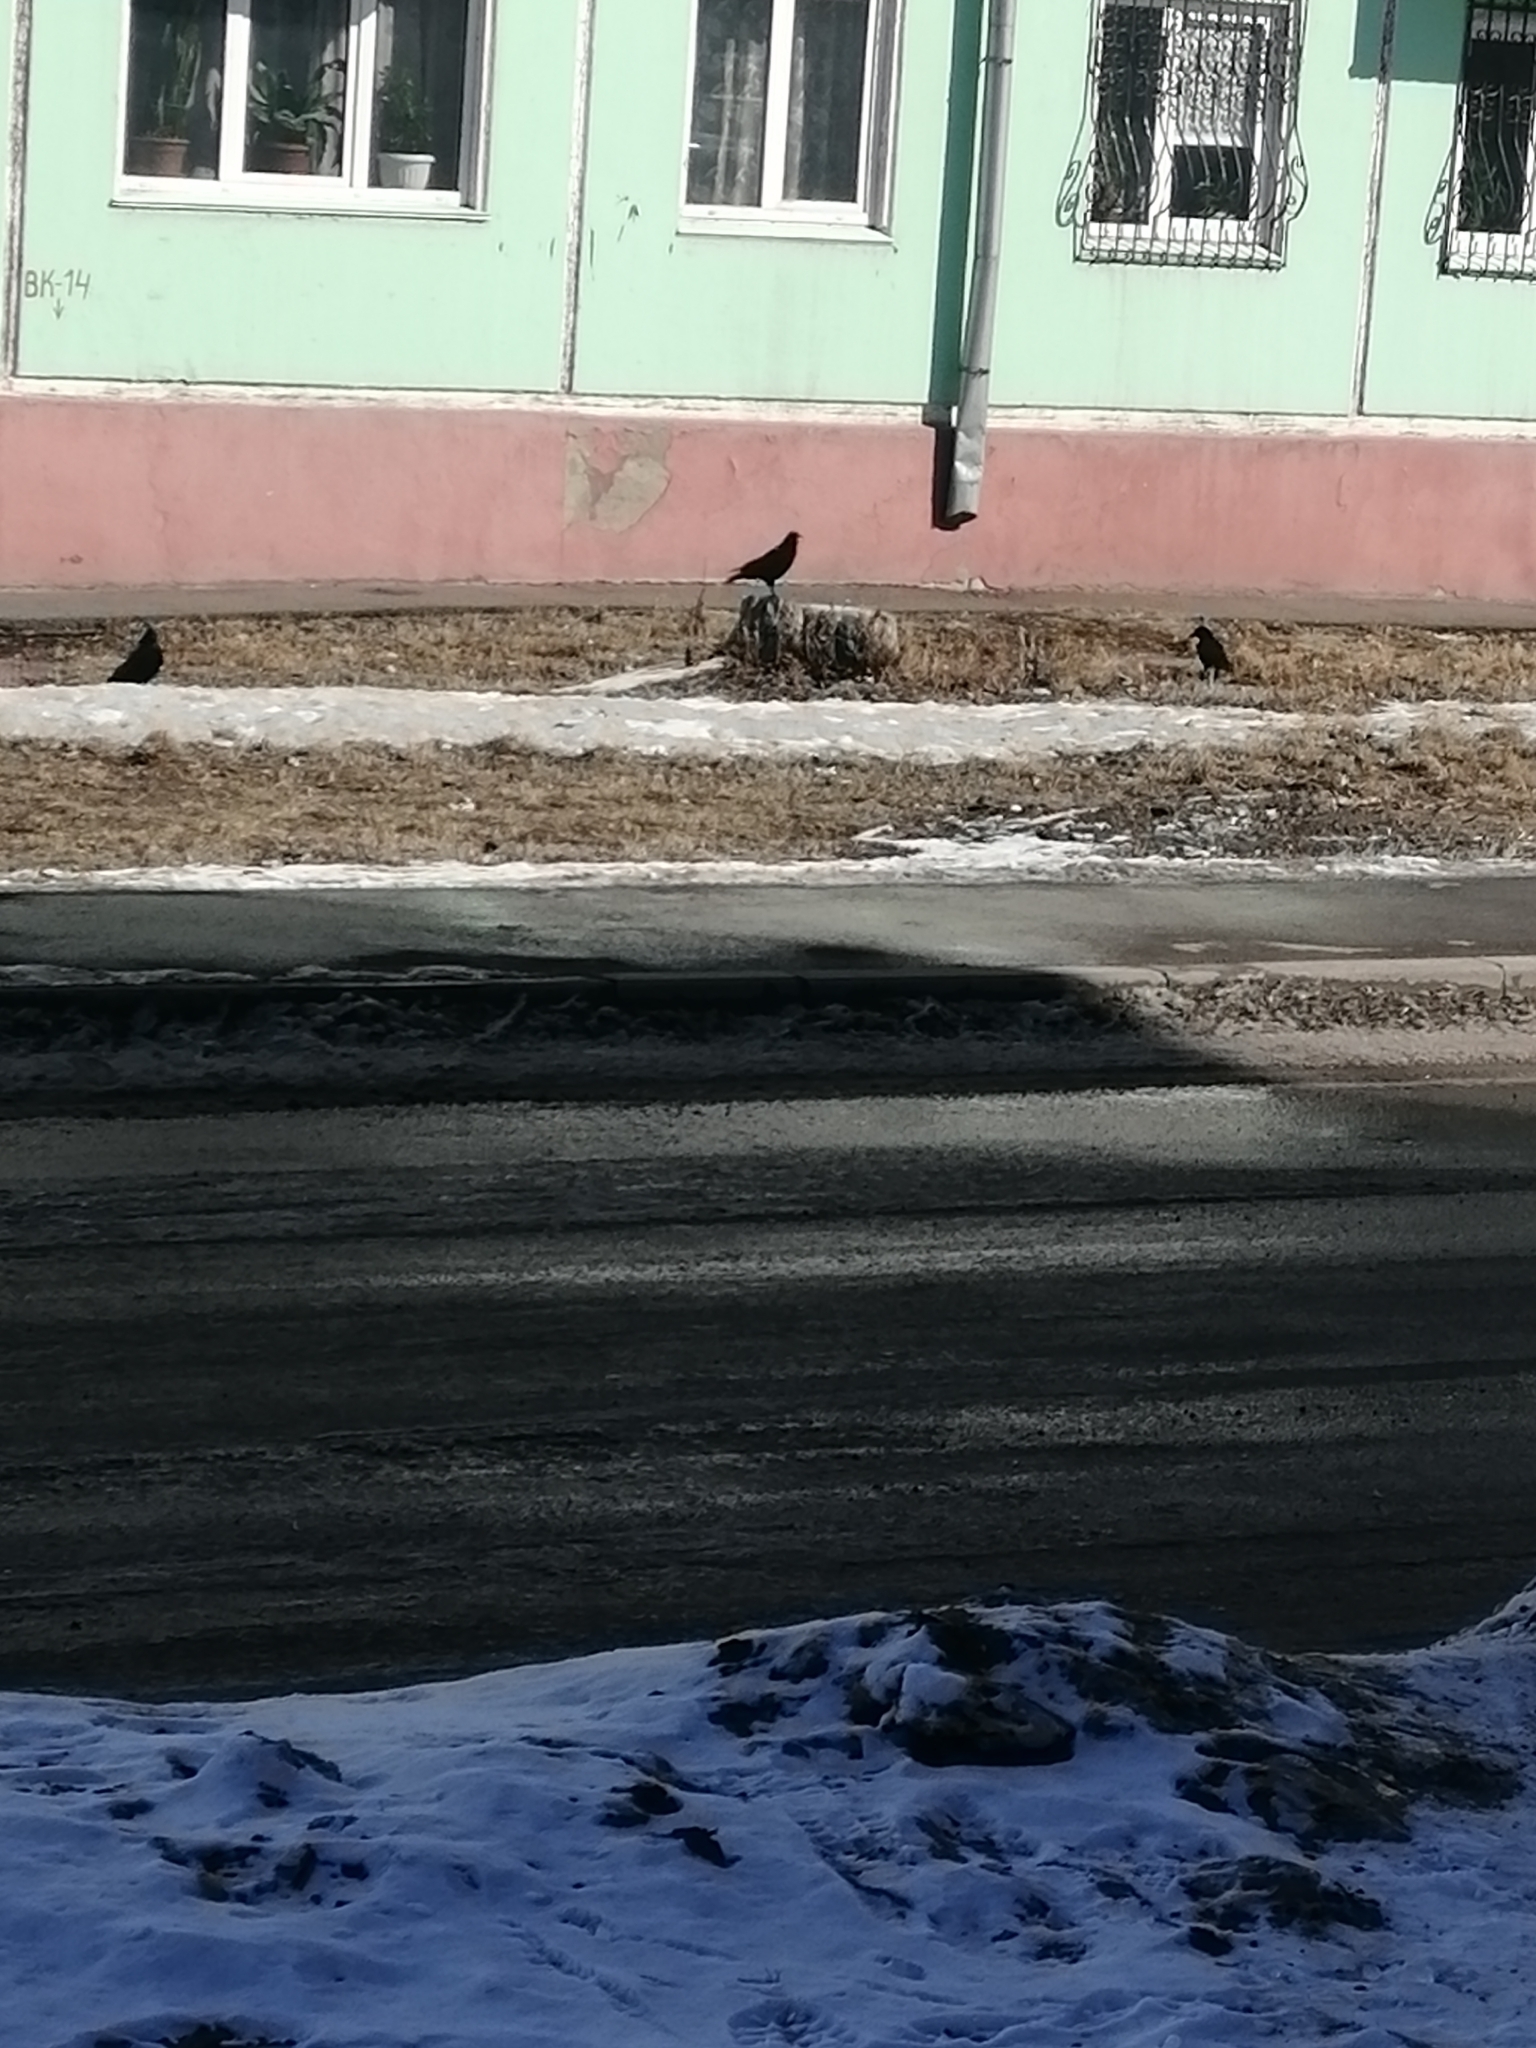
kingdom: Animalia
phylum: Chordata
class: Aves
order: Passeriformes
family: Corvidae
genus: Corvus
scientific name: Corvus corone
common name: Carrion crow
